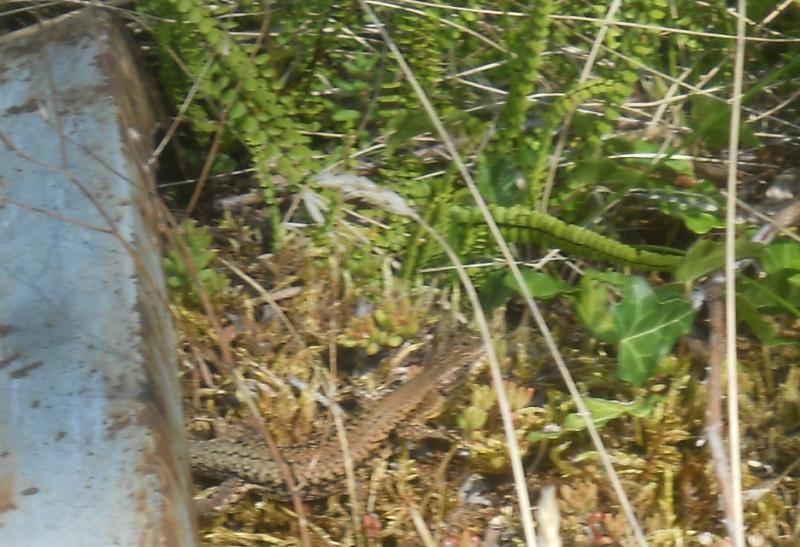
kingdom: Animalia
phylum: Chordata
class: Squamata
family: Lacertidae
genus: Podarcis
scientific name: Podarcis muralis
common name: Common wall lizard
